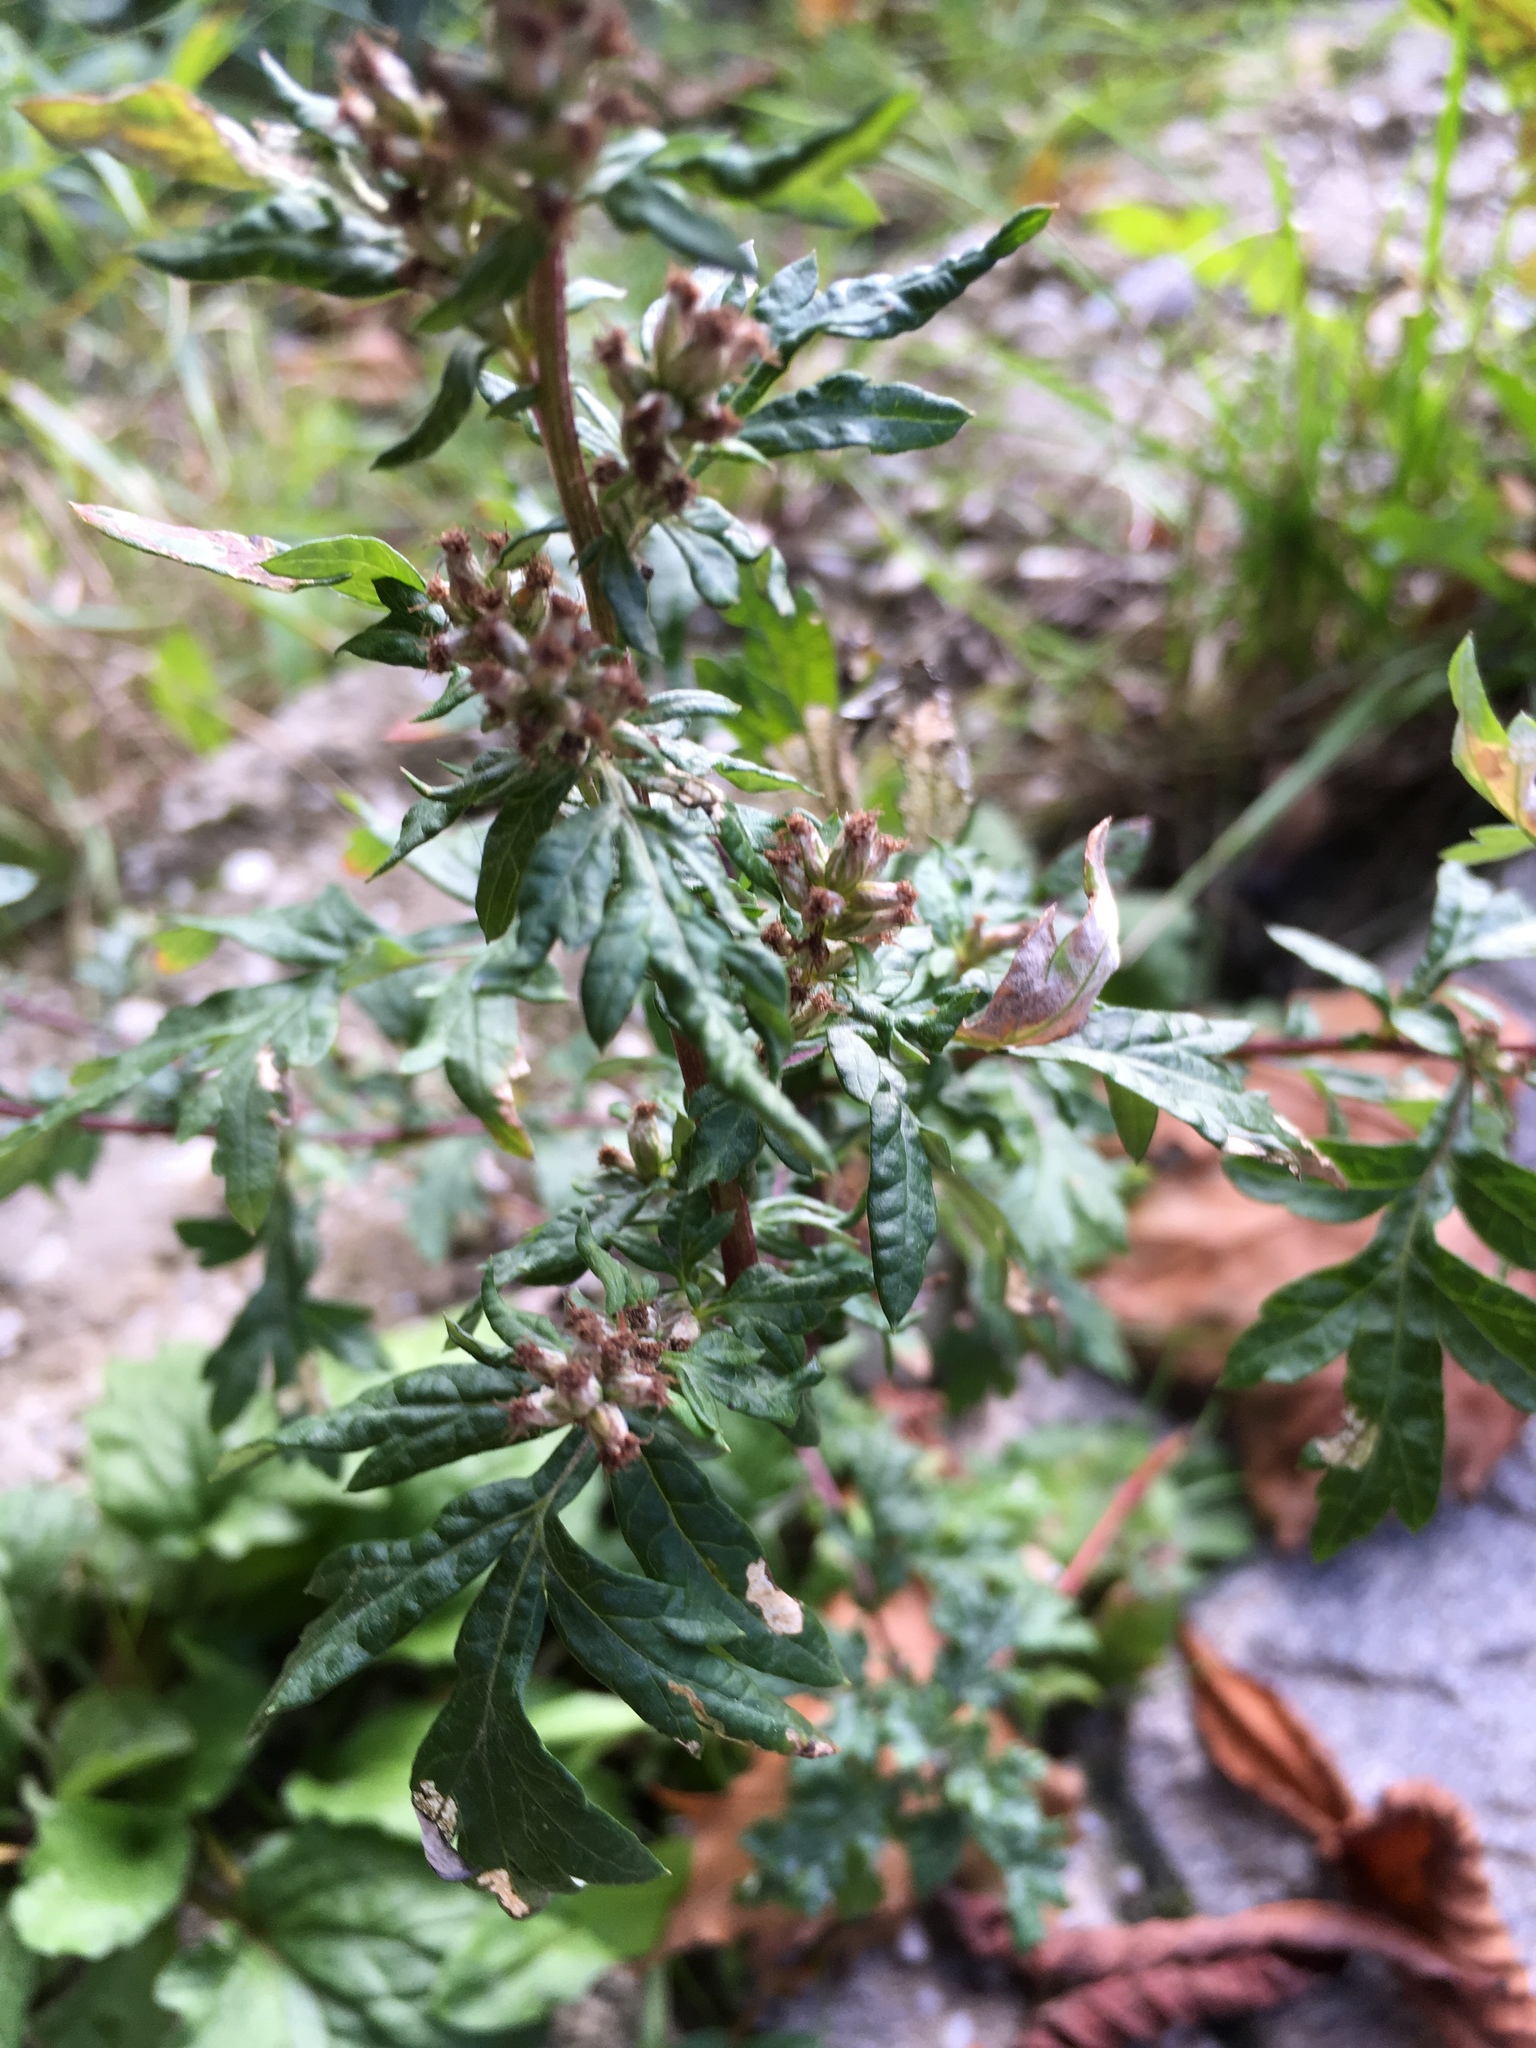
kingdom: Plantae
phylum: Tracheophyta
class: Magnoliopsida
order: Asterales
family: Asteraceae
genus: Artemisia
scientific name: Artemisia vulgaris
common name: Mugwort
